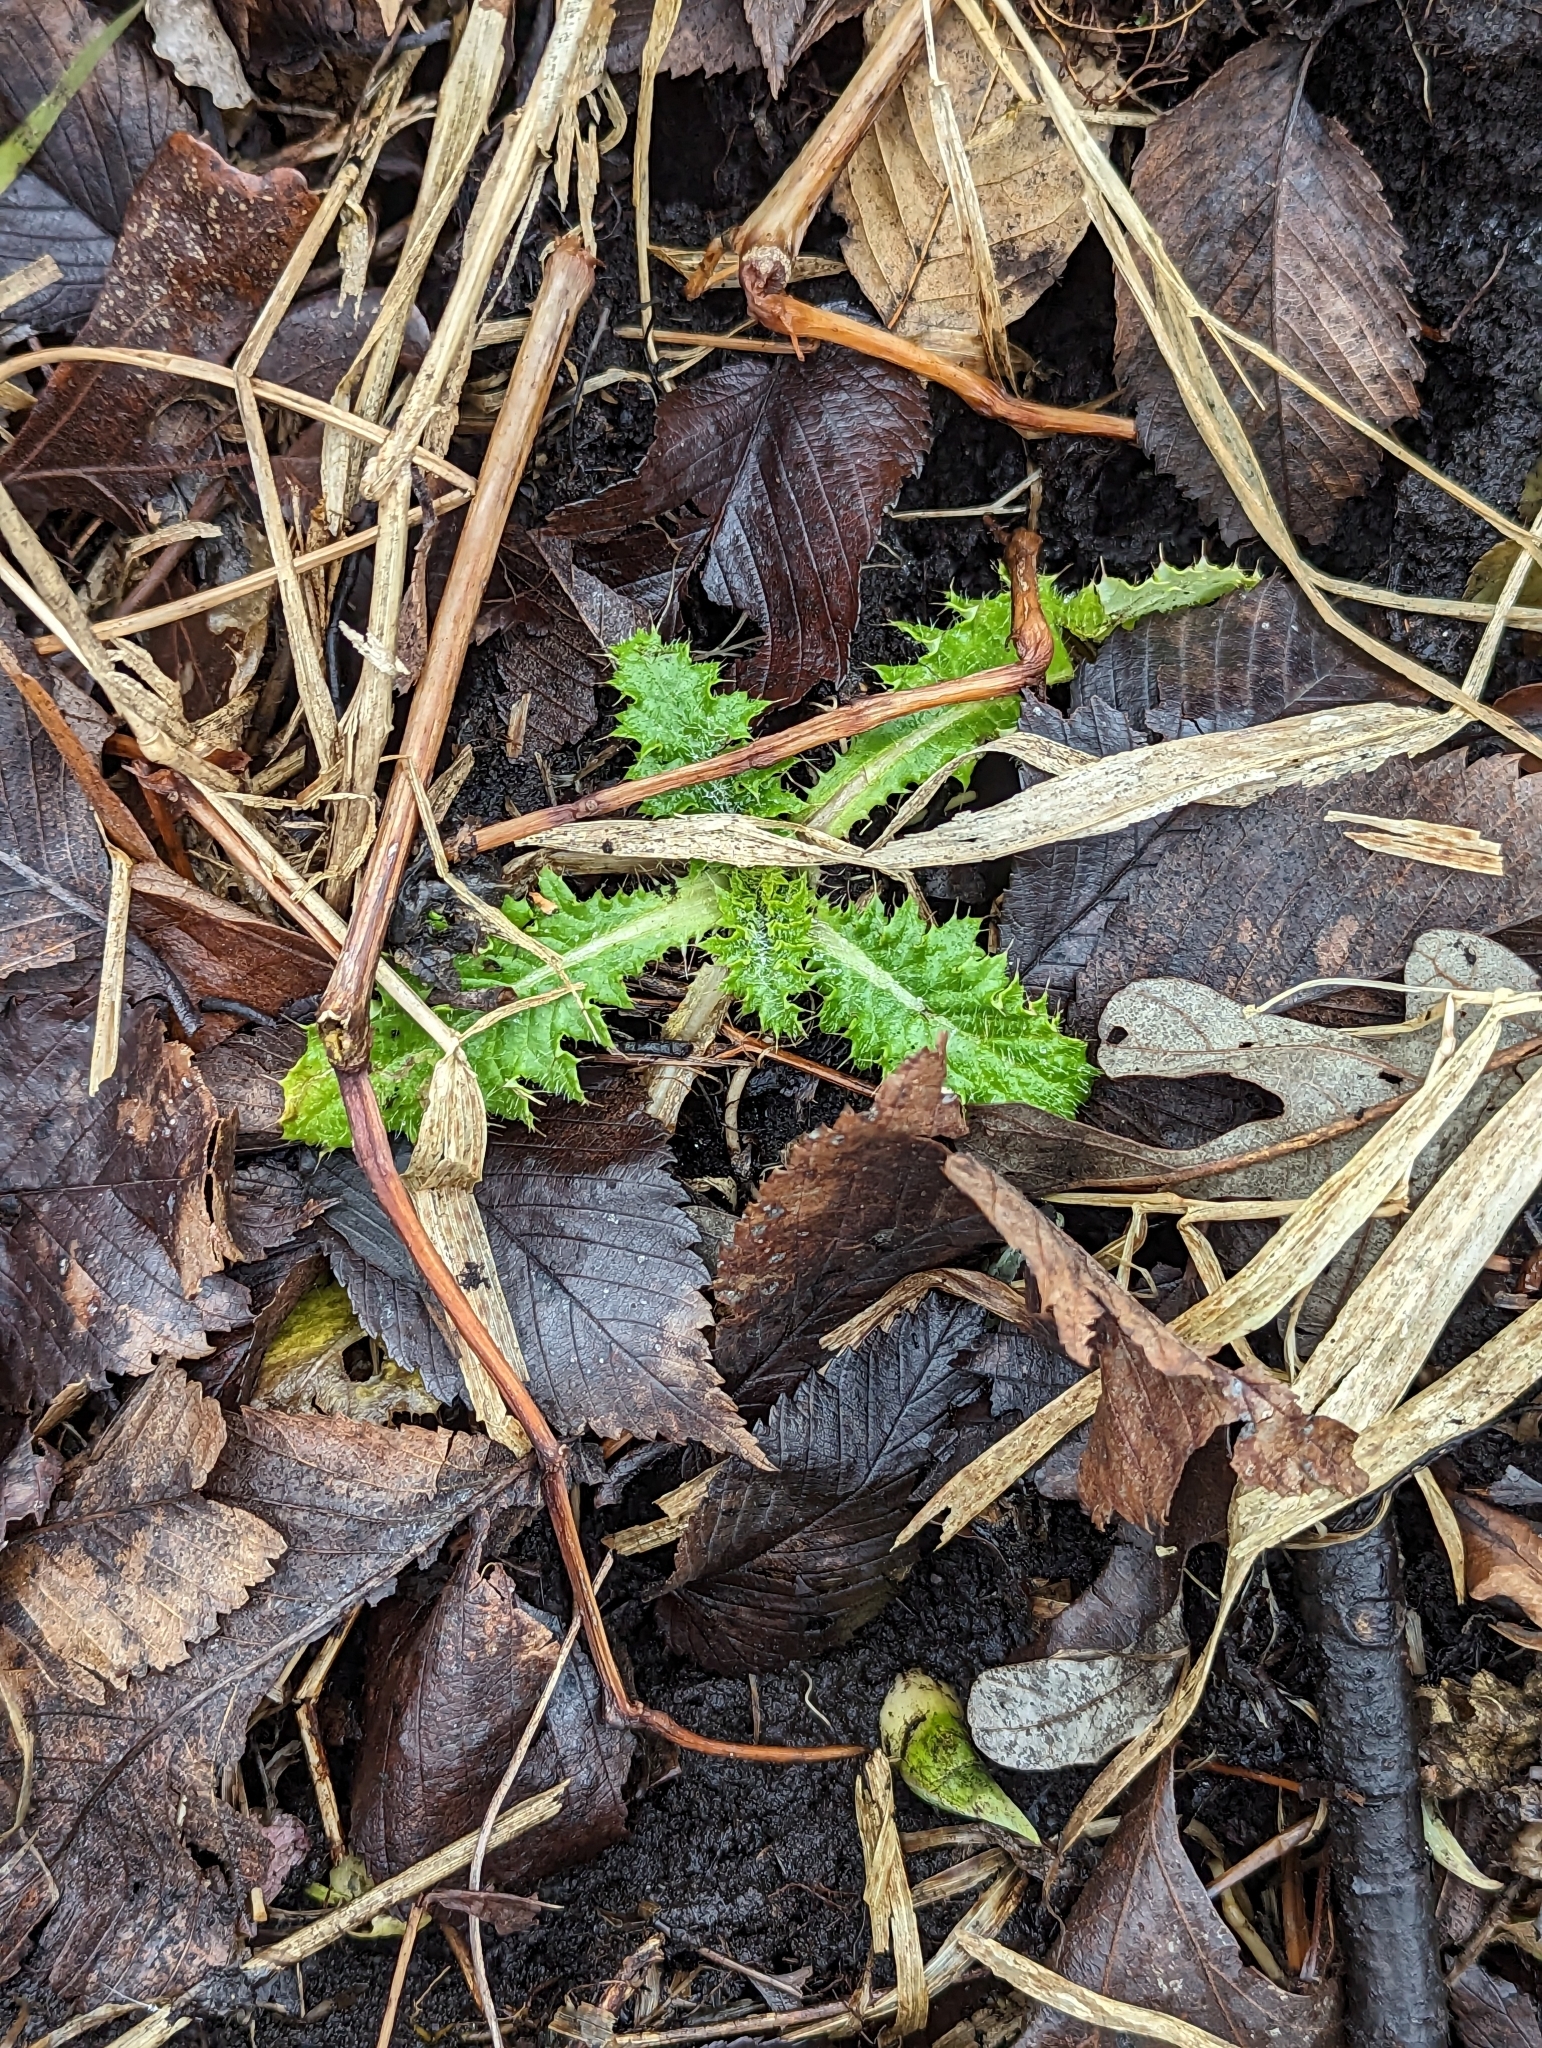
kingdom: Plantae
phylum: Tracheophyta
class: Magnoliopsida
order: Asterales
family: Asteraceae
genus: Cirsium
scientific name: Cirsium muticum
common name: Dunce-nettle
